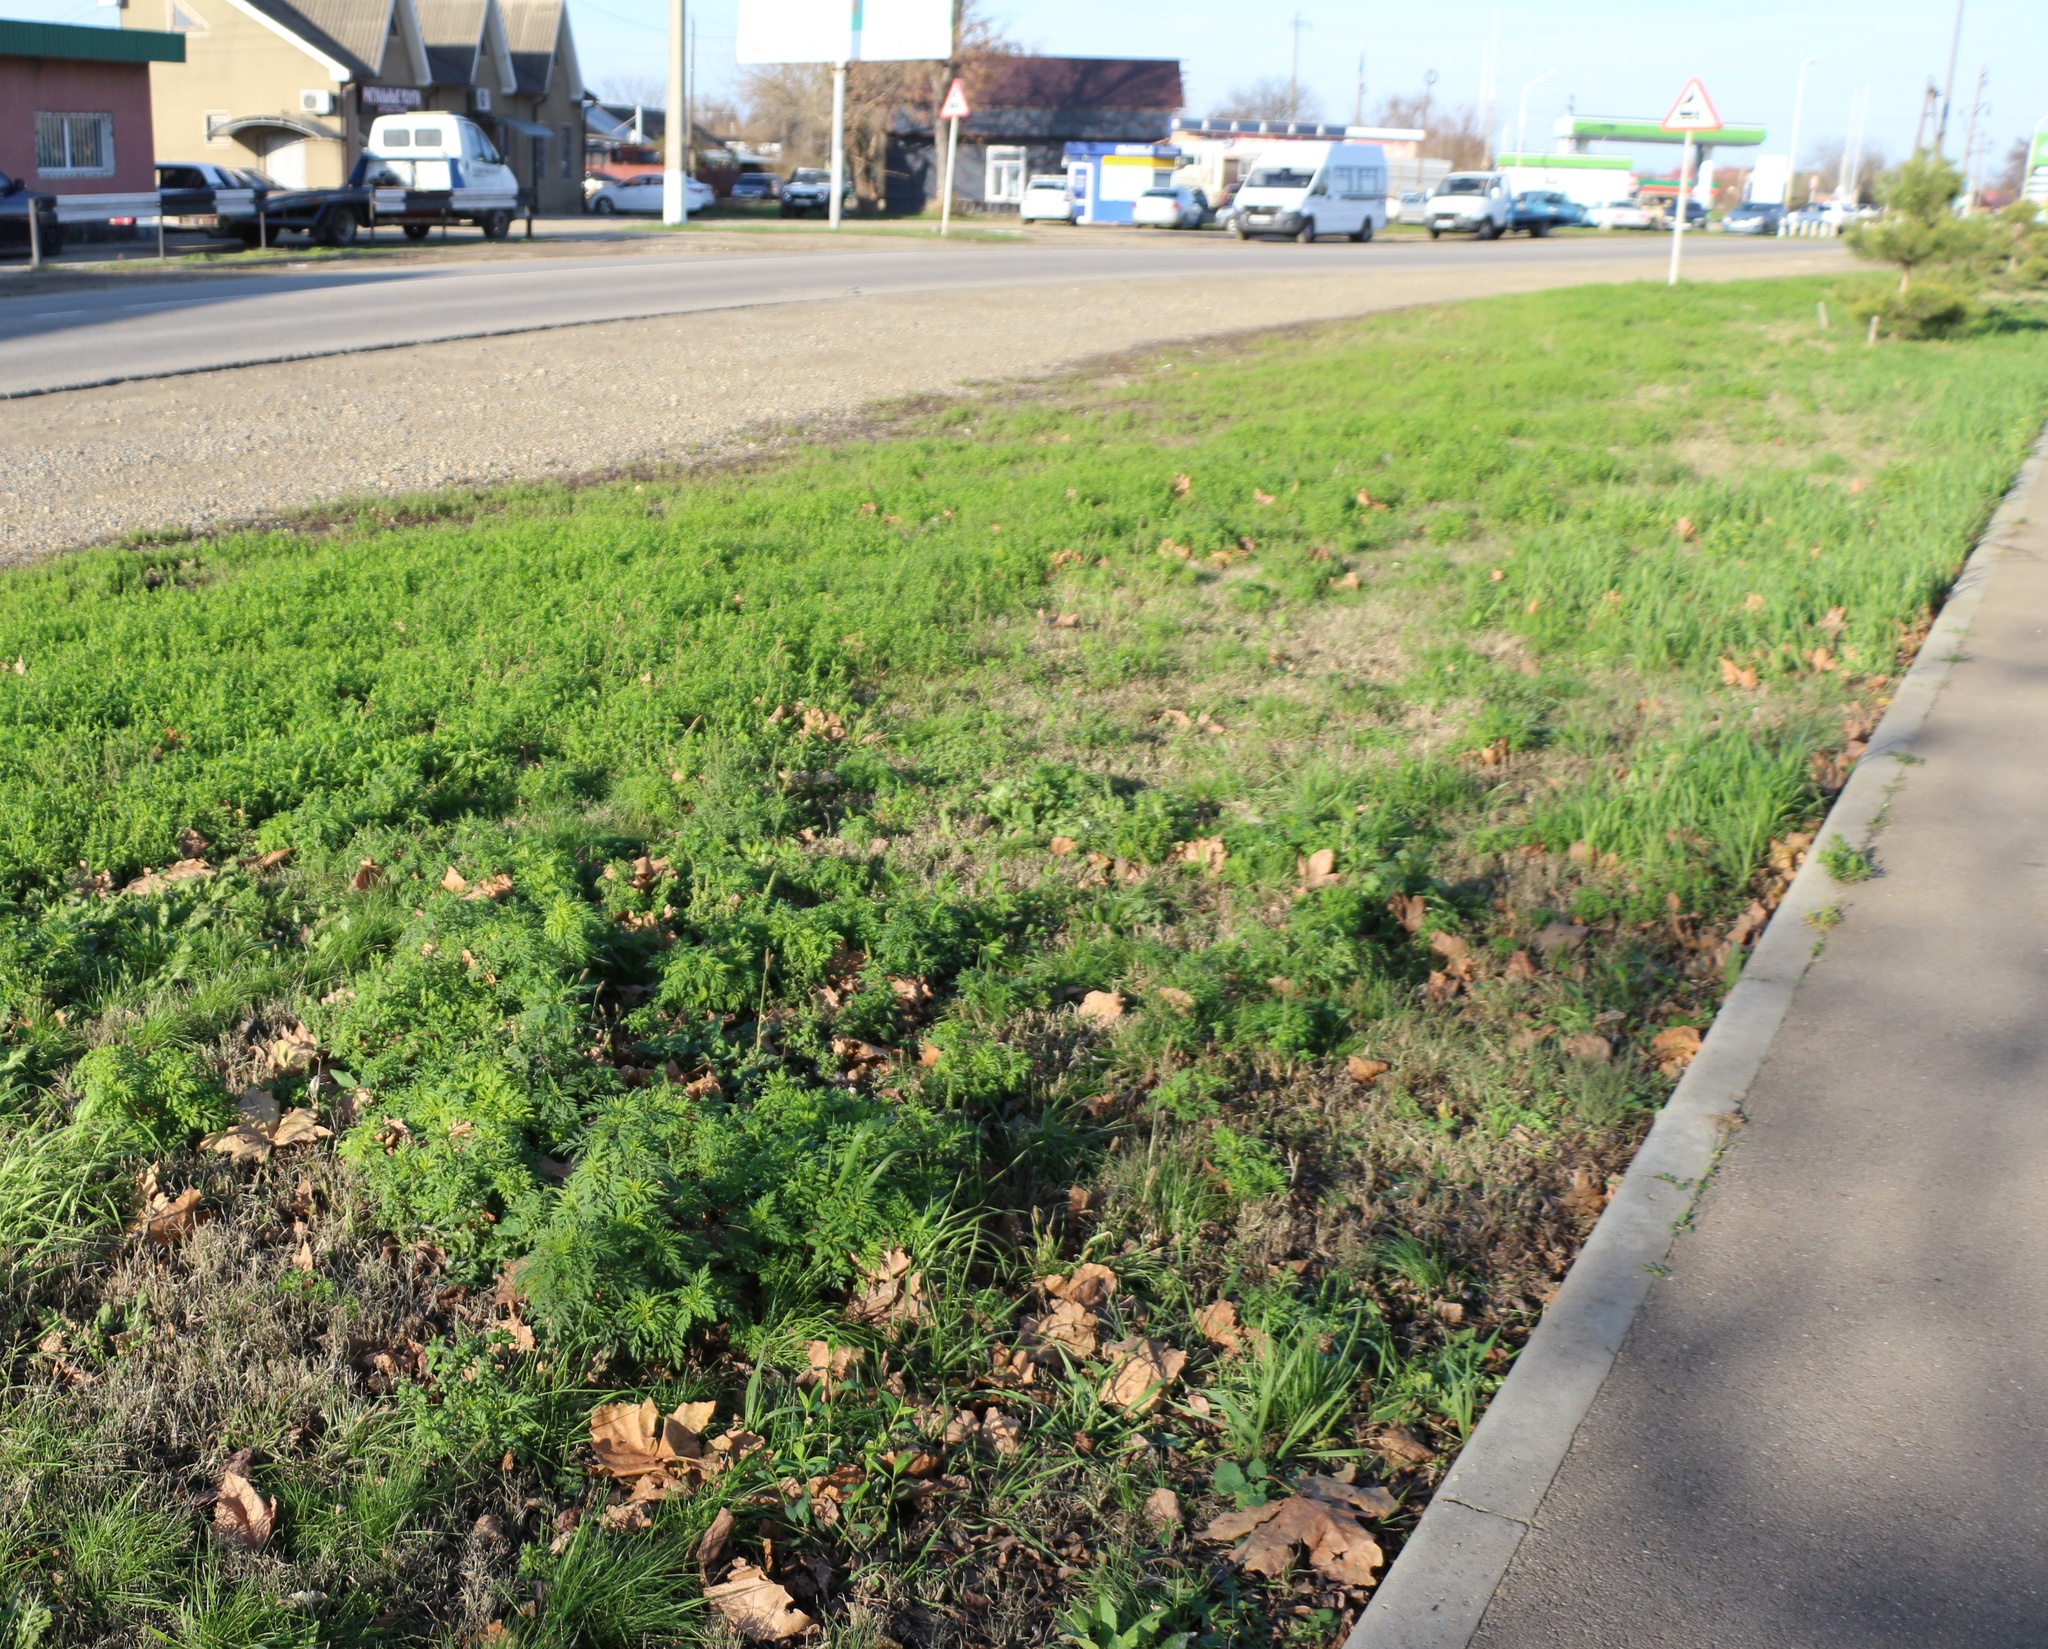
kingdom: Plantae
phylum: Tracheophyta
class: Magnoliopsida
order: Asterales
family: Asteraceae
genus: Ambrosia
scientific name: Ambrosia artemisiifolia
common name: Annual ragweed
